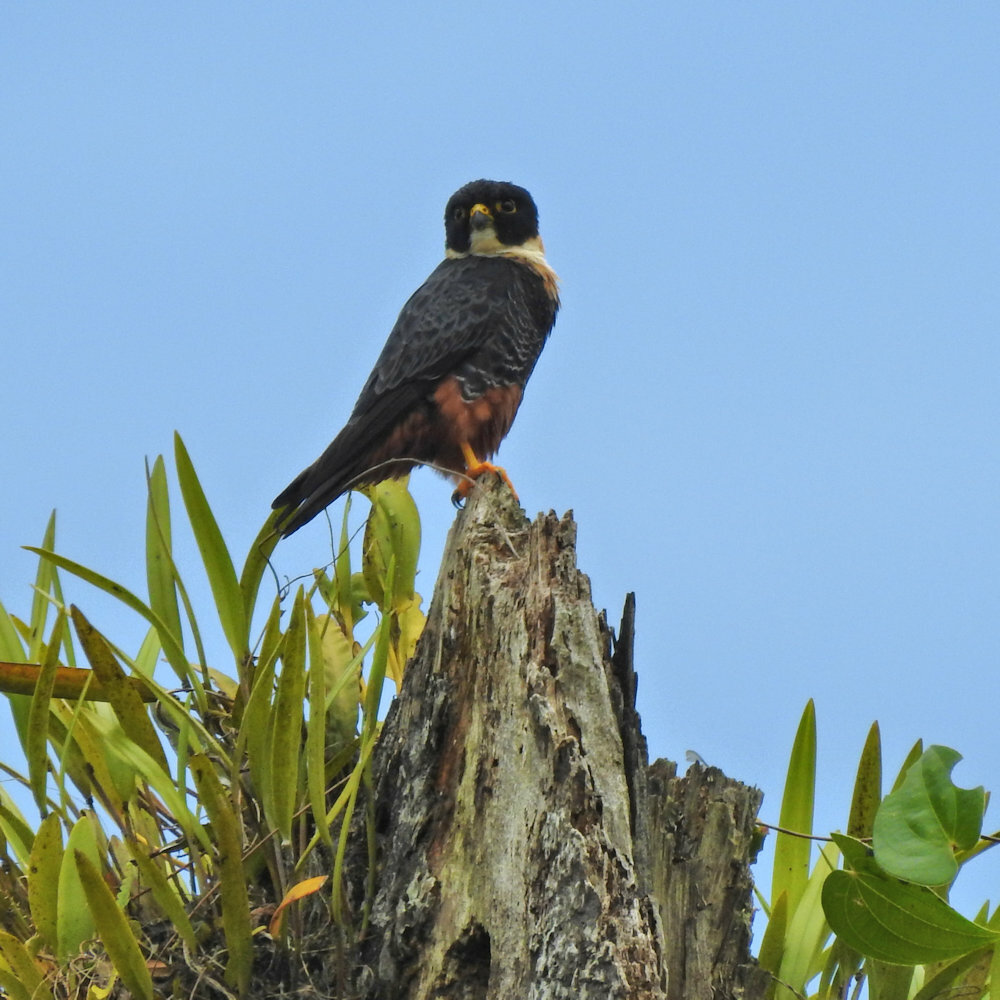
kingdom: Animalia
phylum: Chordata
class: Aves
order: Falconiformes
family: Falconidae
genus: Falco
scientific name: Falco rufigularis
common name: Bat falcon
